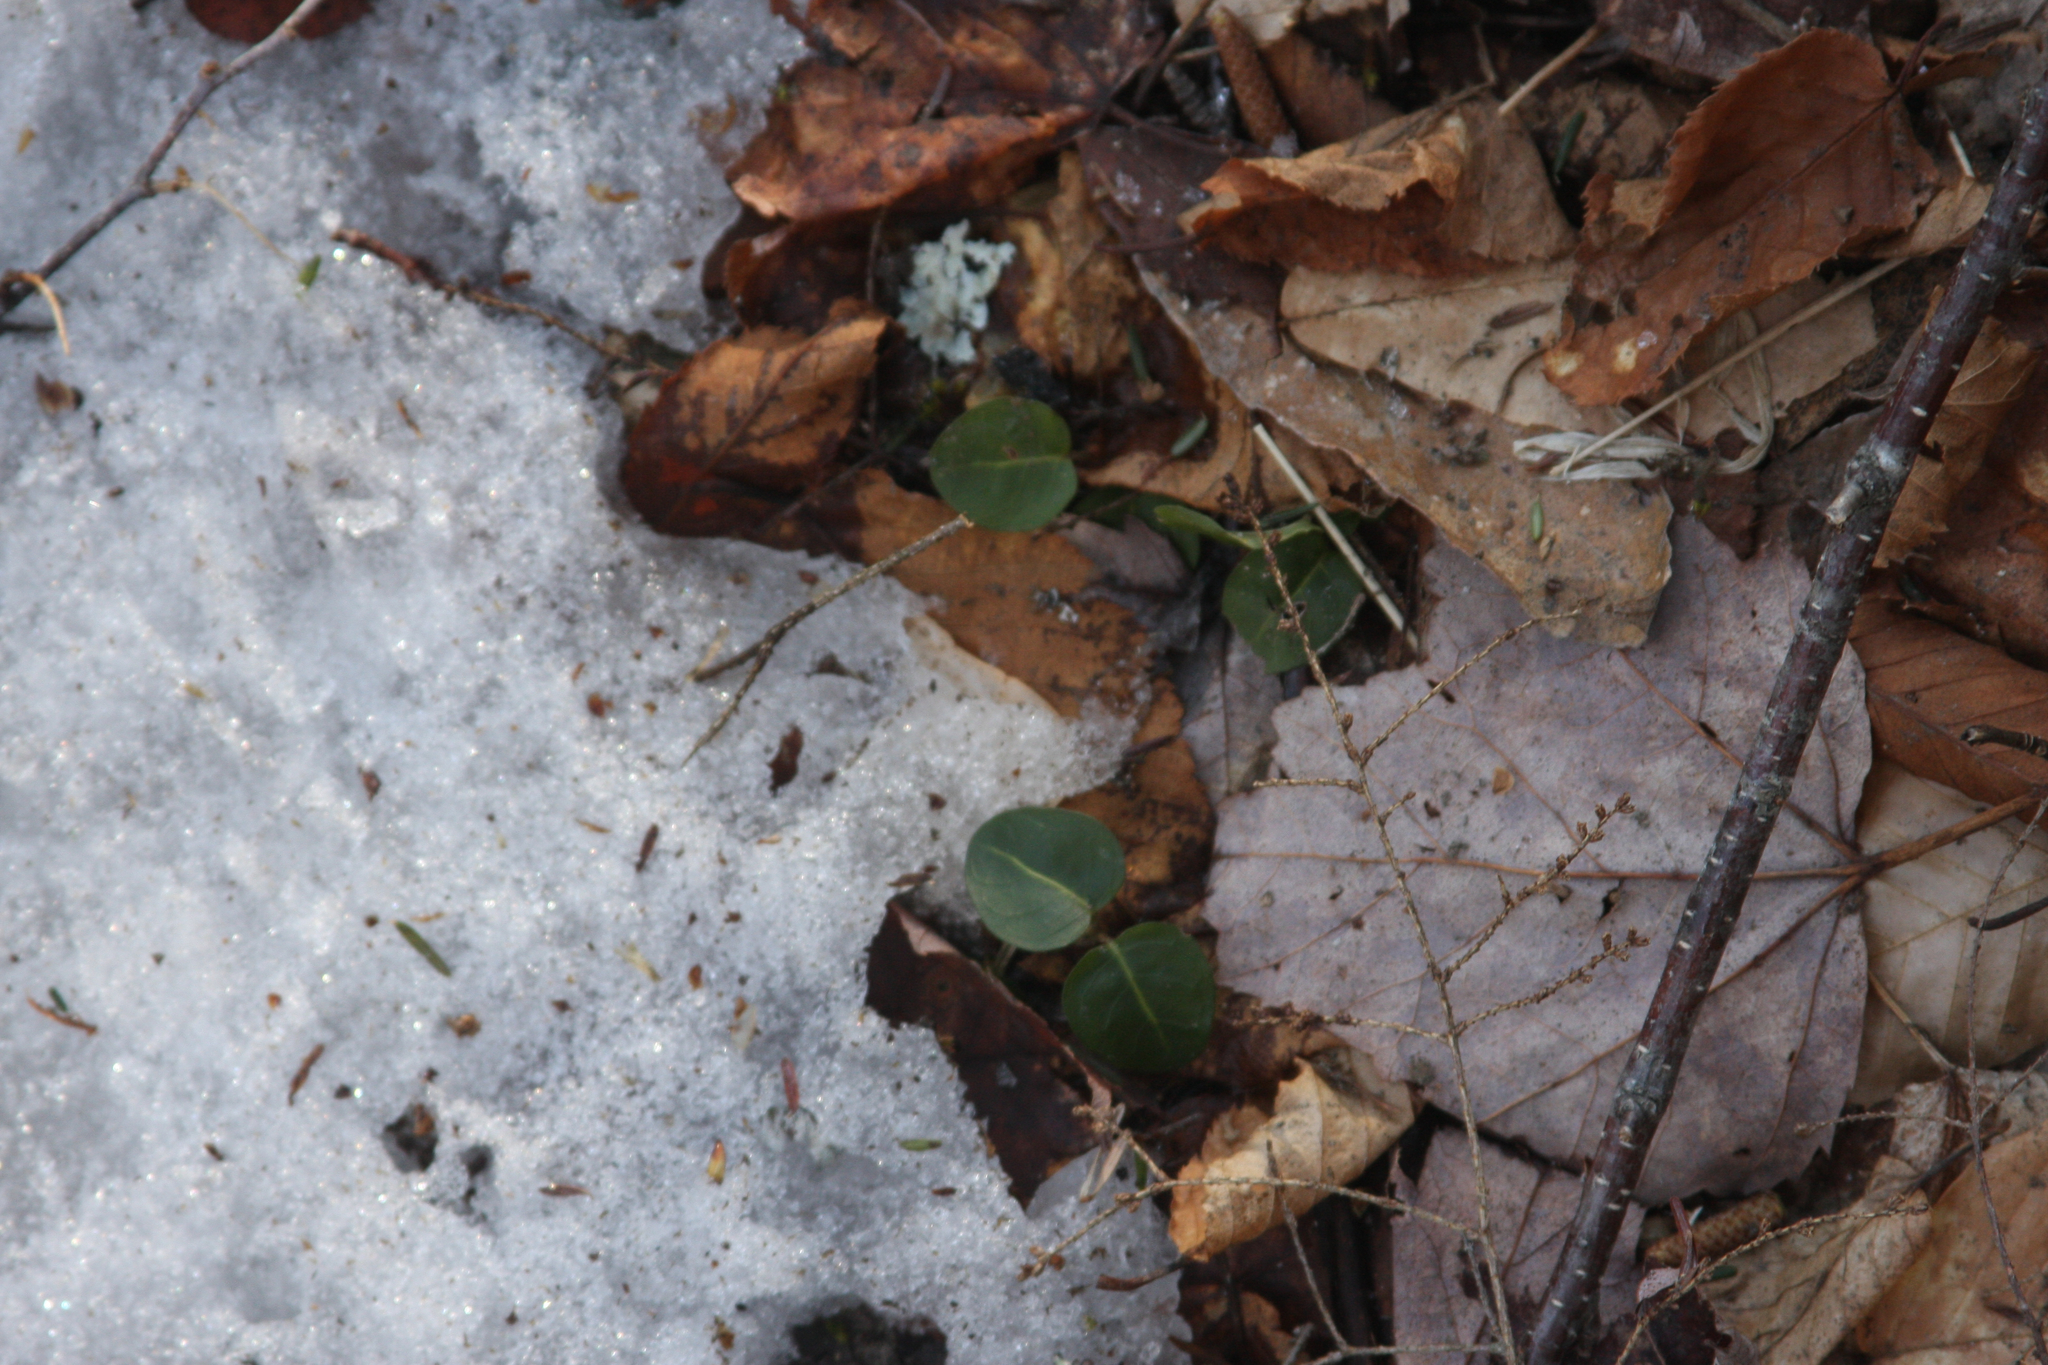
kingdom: Plantae
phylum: Tracheophyta
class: Magnoliopsida
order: Gentianales
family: Rubiaceae
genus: Mitchella
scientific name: Mitchella repens
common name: Partridge-berry
